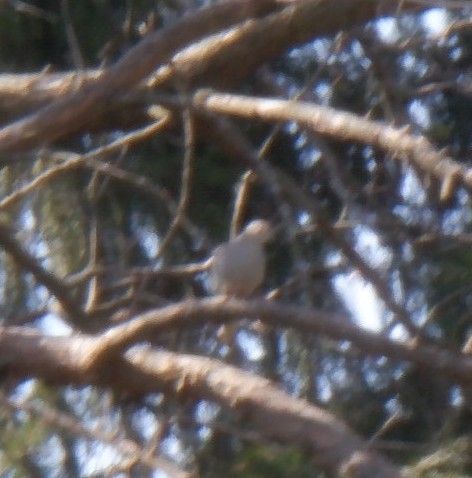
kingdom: Animalia
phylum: Chordata
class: Aves
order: Columbiformes
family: Columbidae
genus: Zenaida
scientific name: Zenaida macroura
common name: Mourning dove
